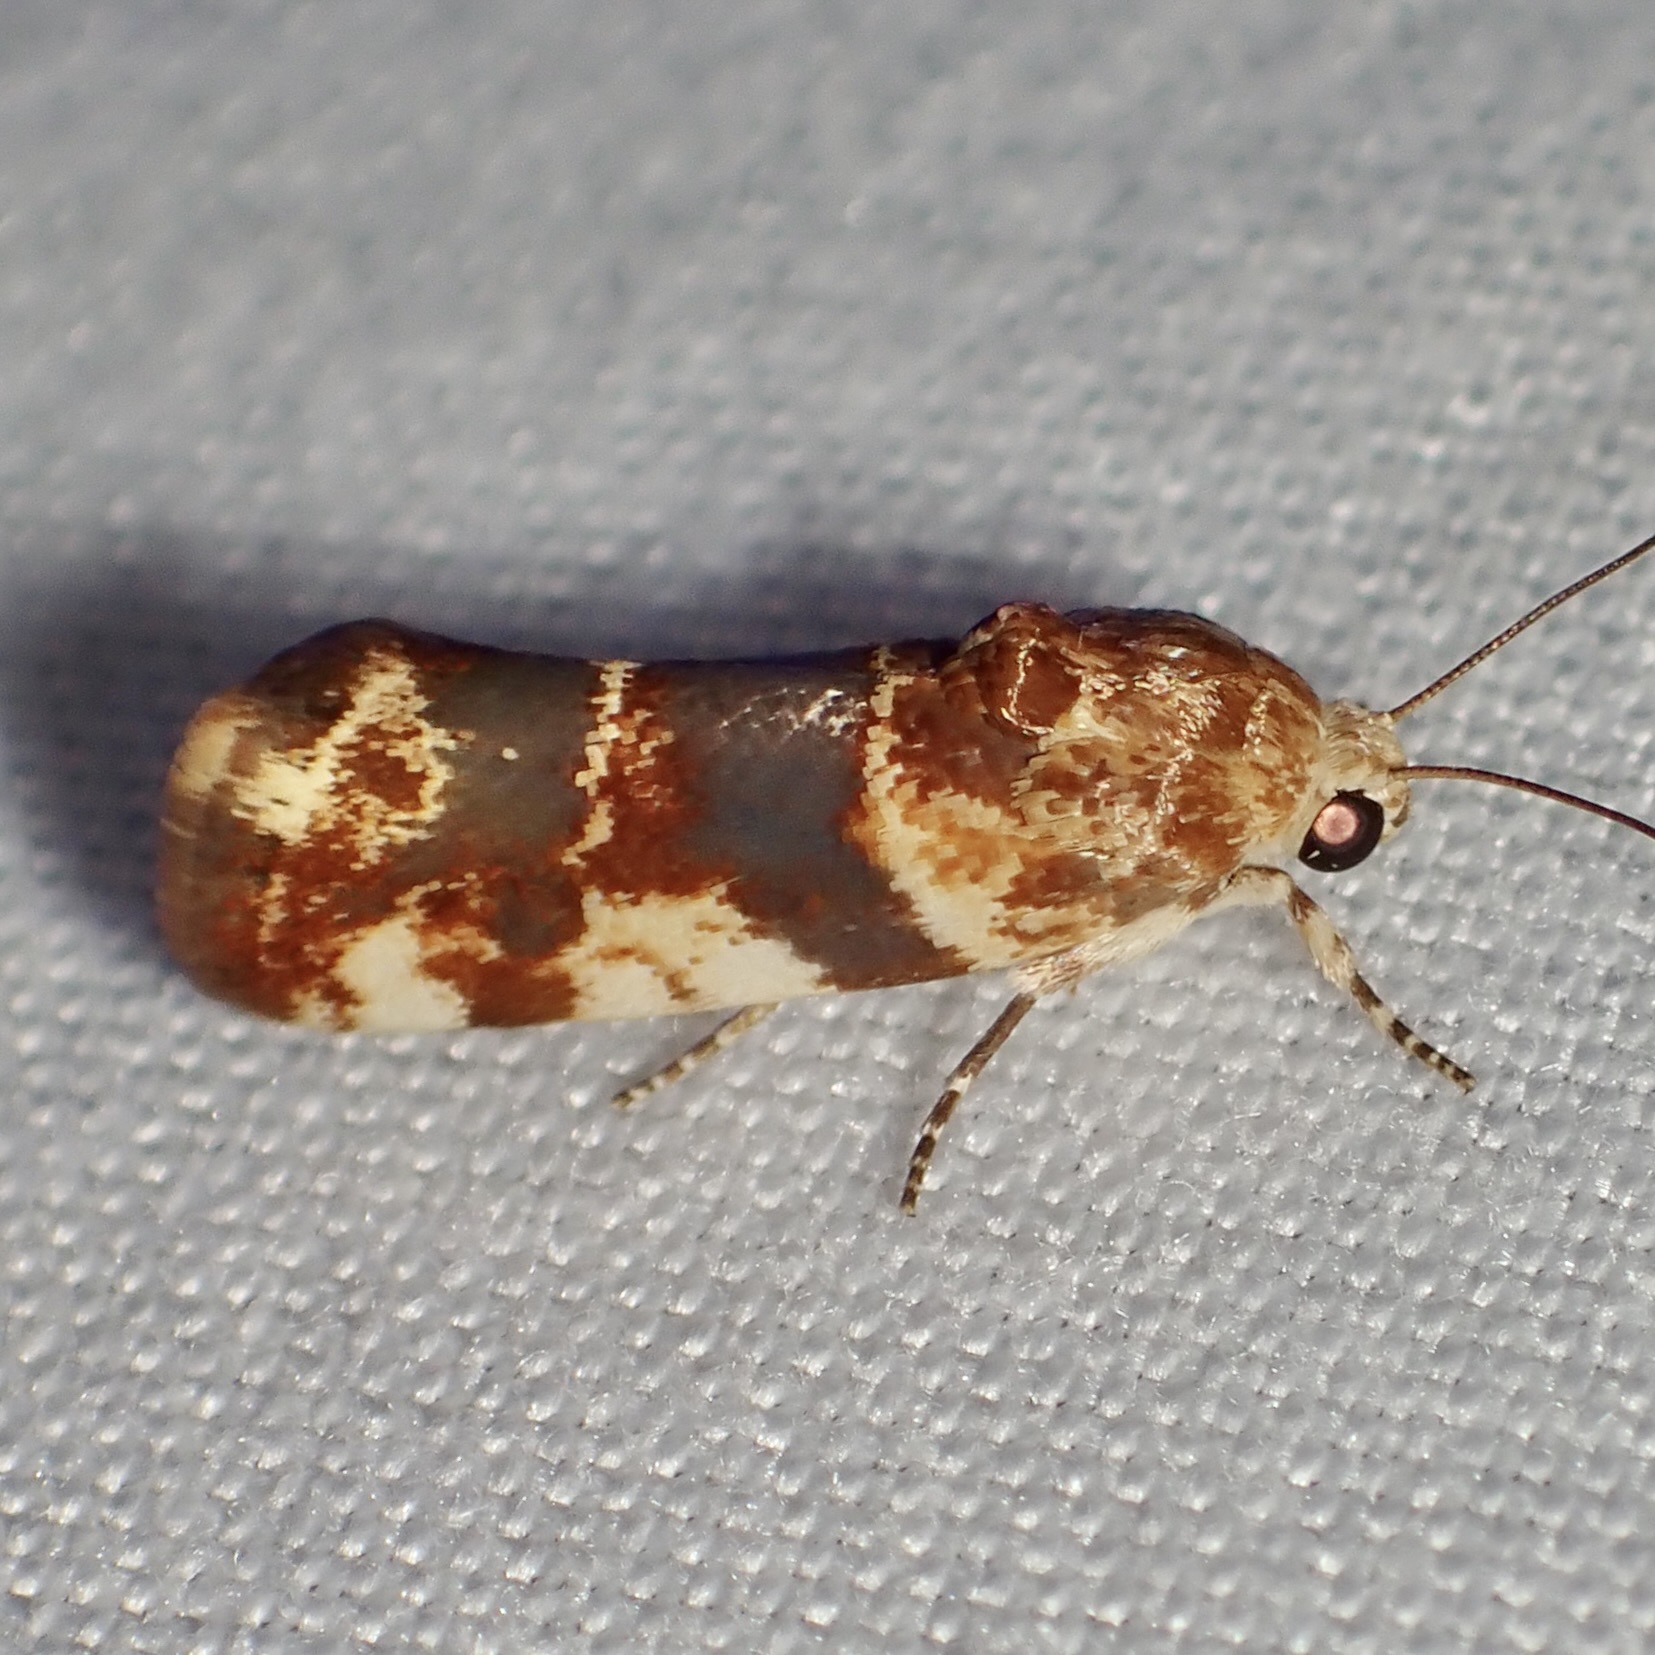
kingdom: Animalia
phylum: Arthropoda
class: Insecta
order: Lepidoptera
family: Noctuidae
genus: Acontia
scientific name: Acontia obatra
